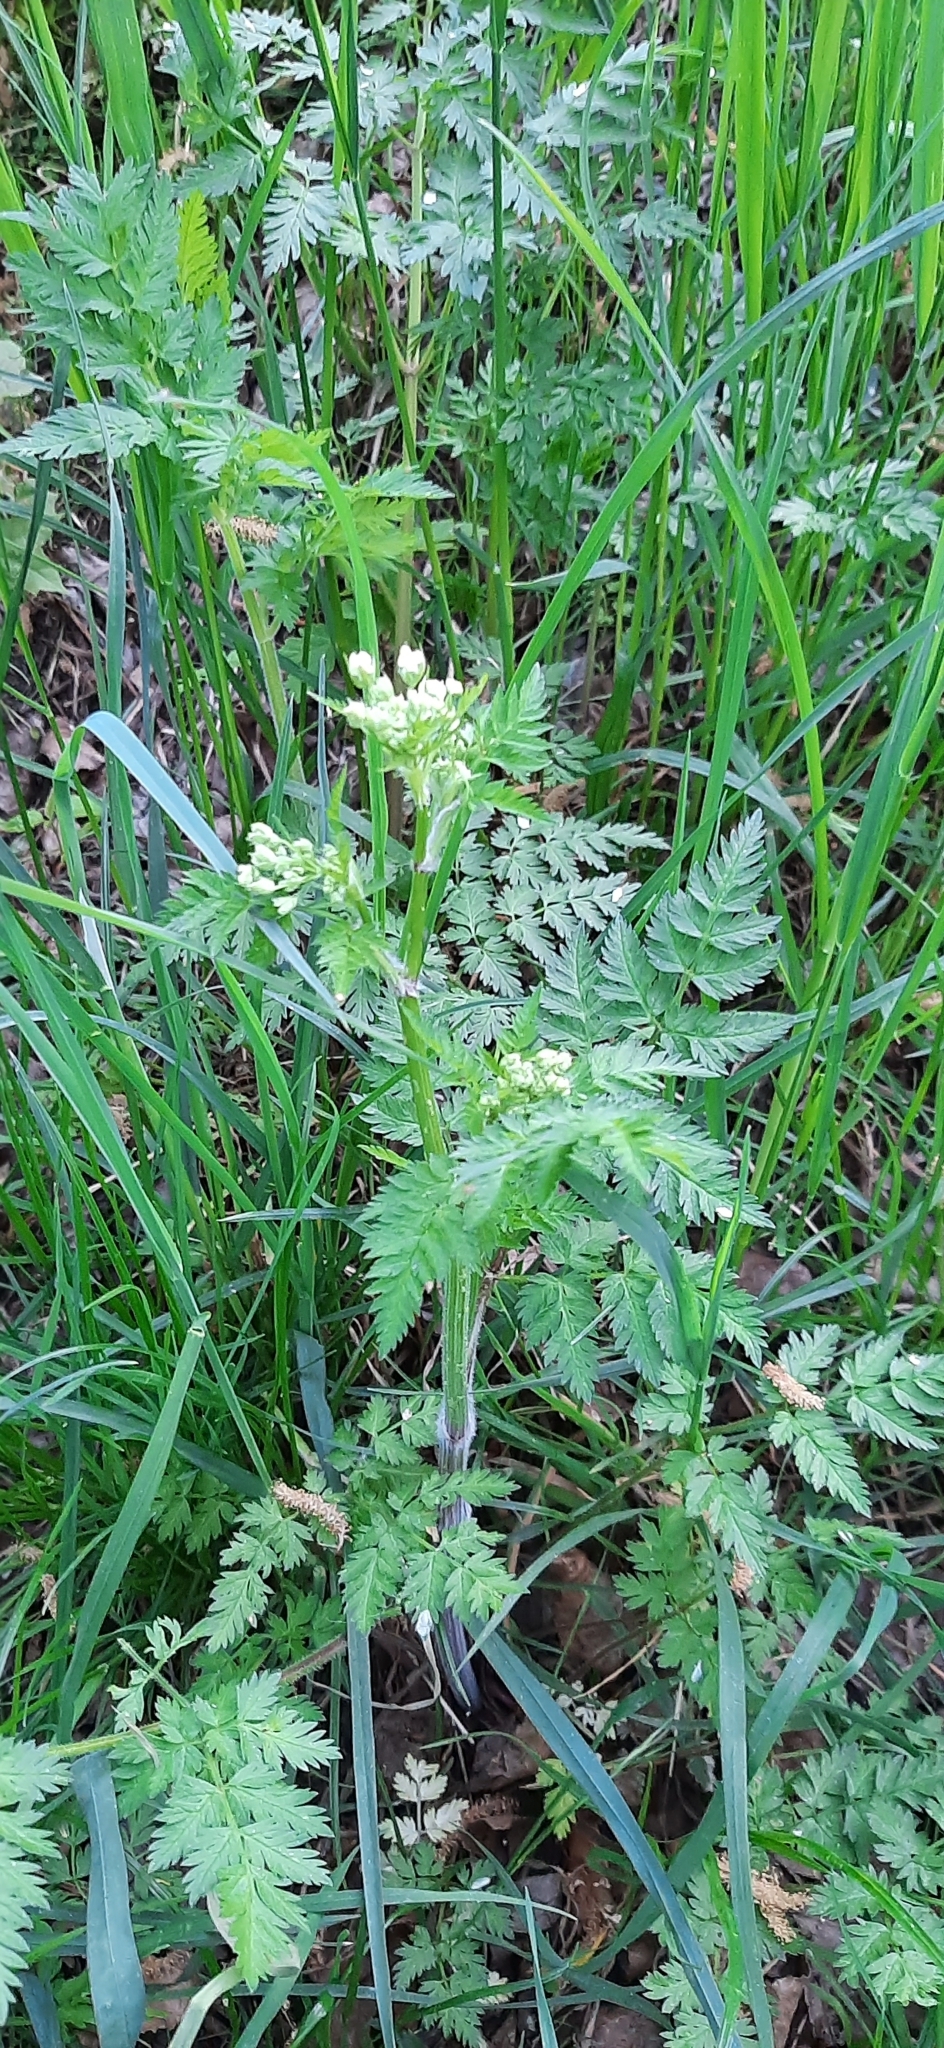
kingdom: Plantae
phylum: Tracheophyta
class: Magnoliopsida
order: Apiales
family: Apiaceae
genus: Anthriscus
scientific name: Anthriscus sylvestris
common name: Cow parsley
